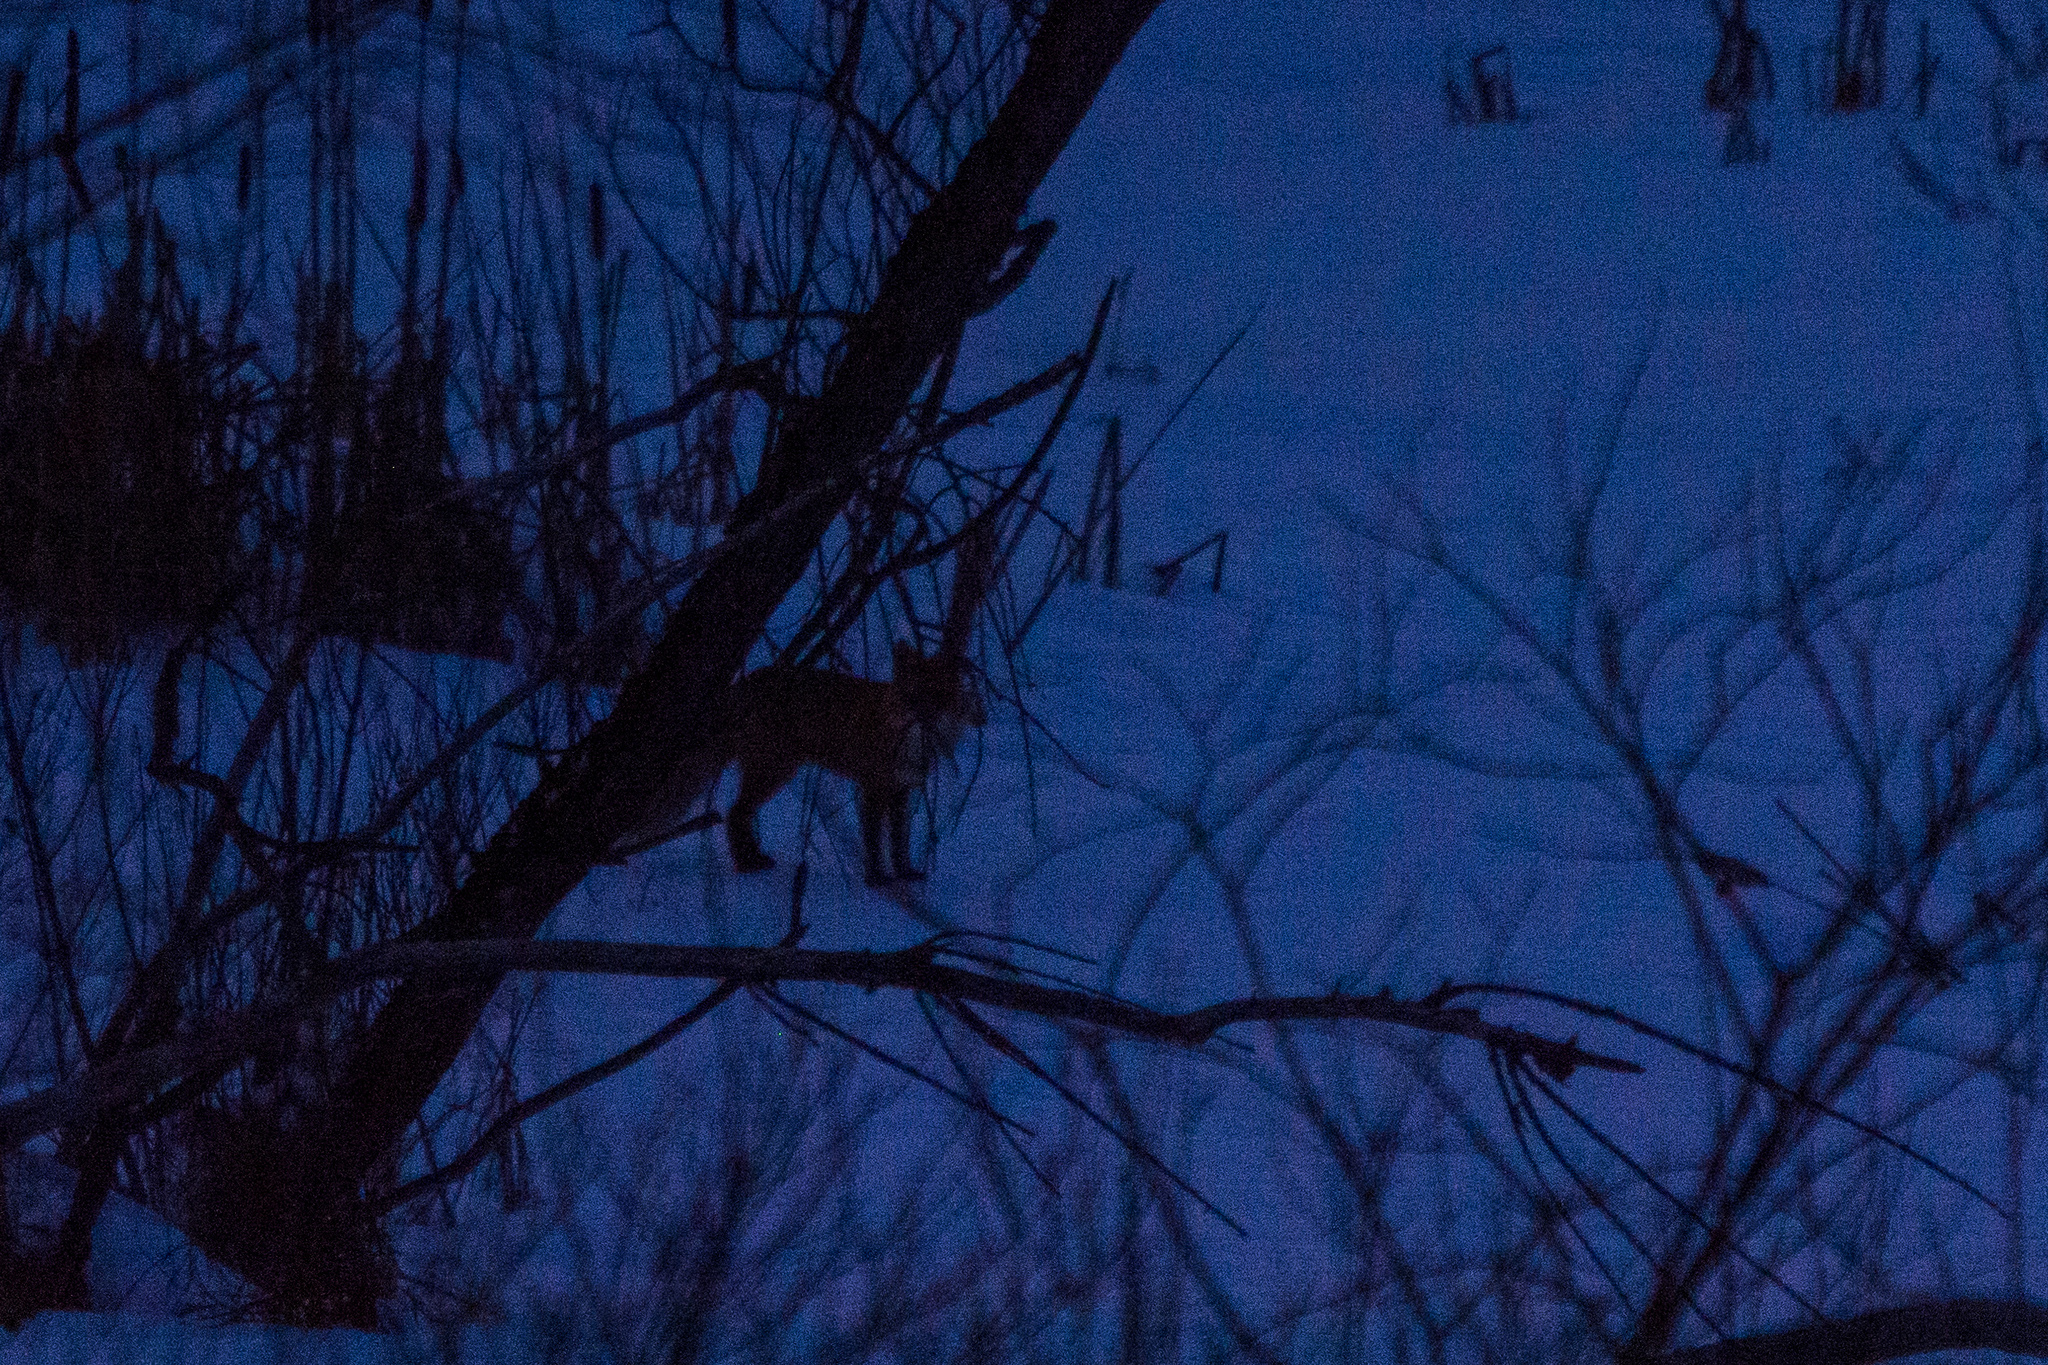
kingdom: Animalia
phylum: Chordata
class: Mammalia
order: Carnivora
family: Canidae
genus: Vulpes
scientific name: Vulpes vulpes
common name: Red fox
